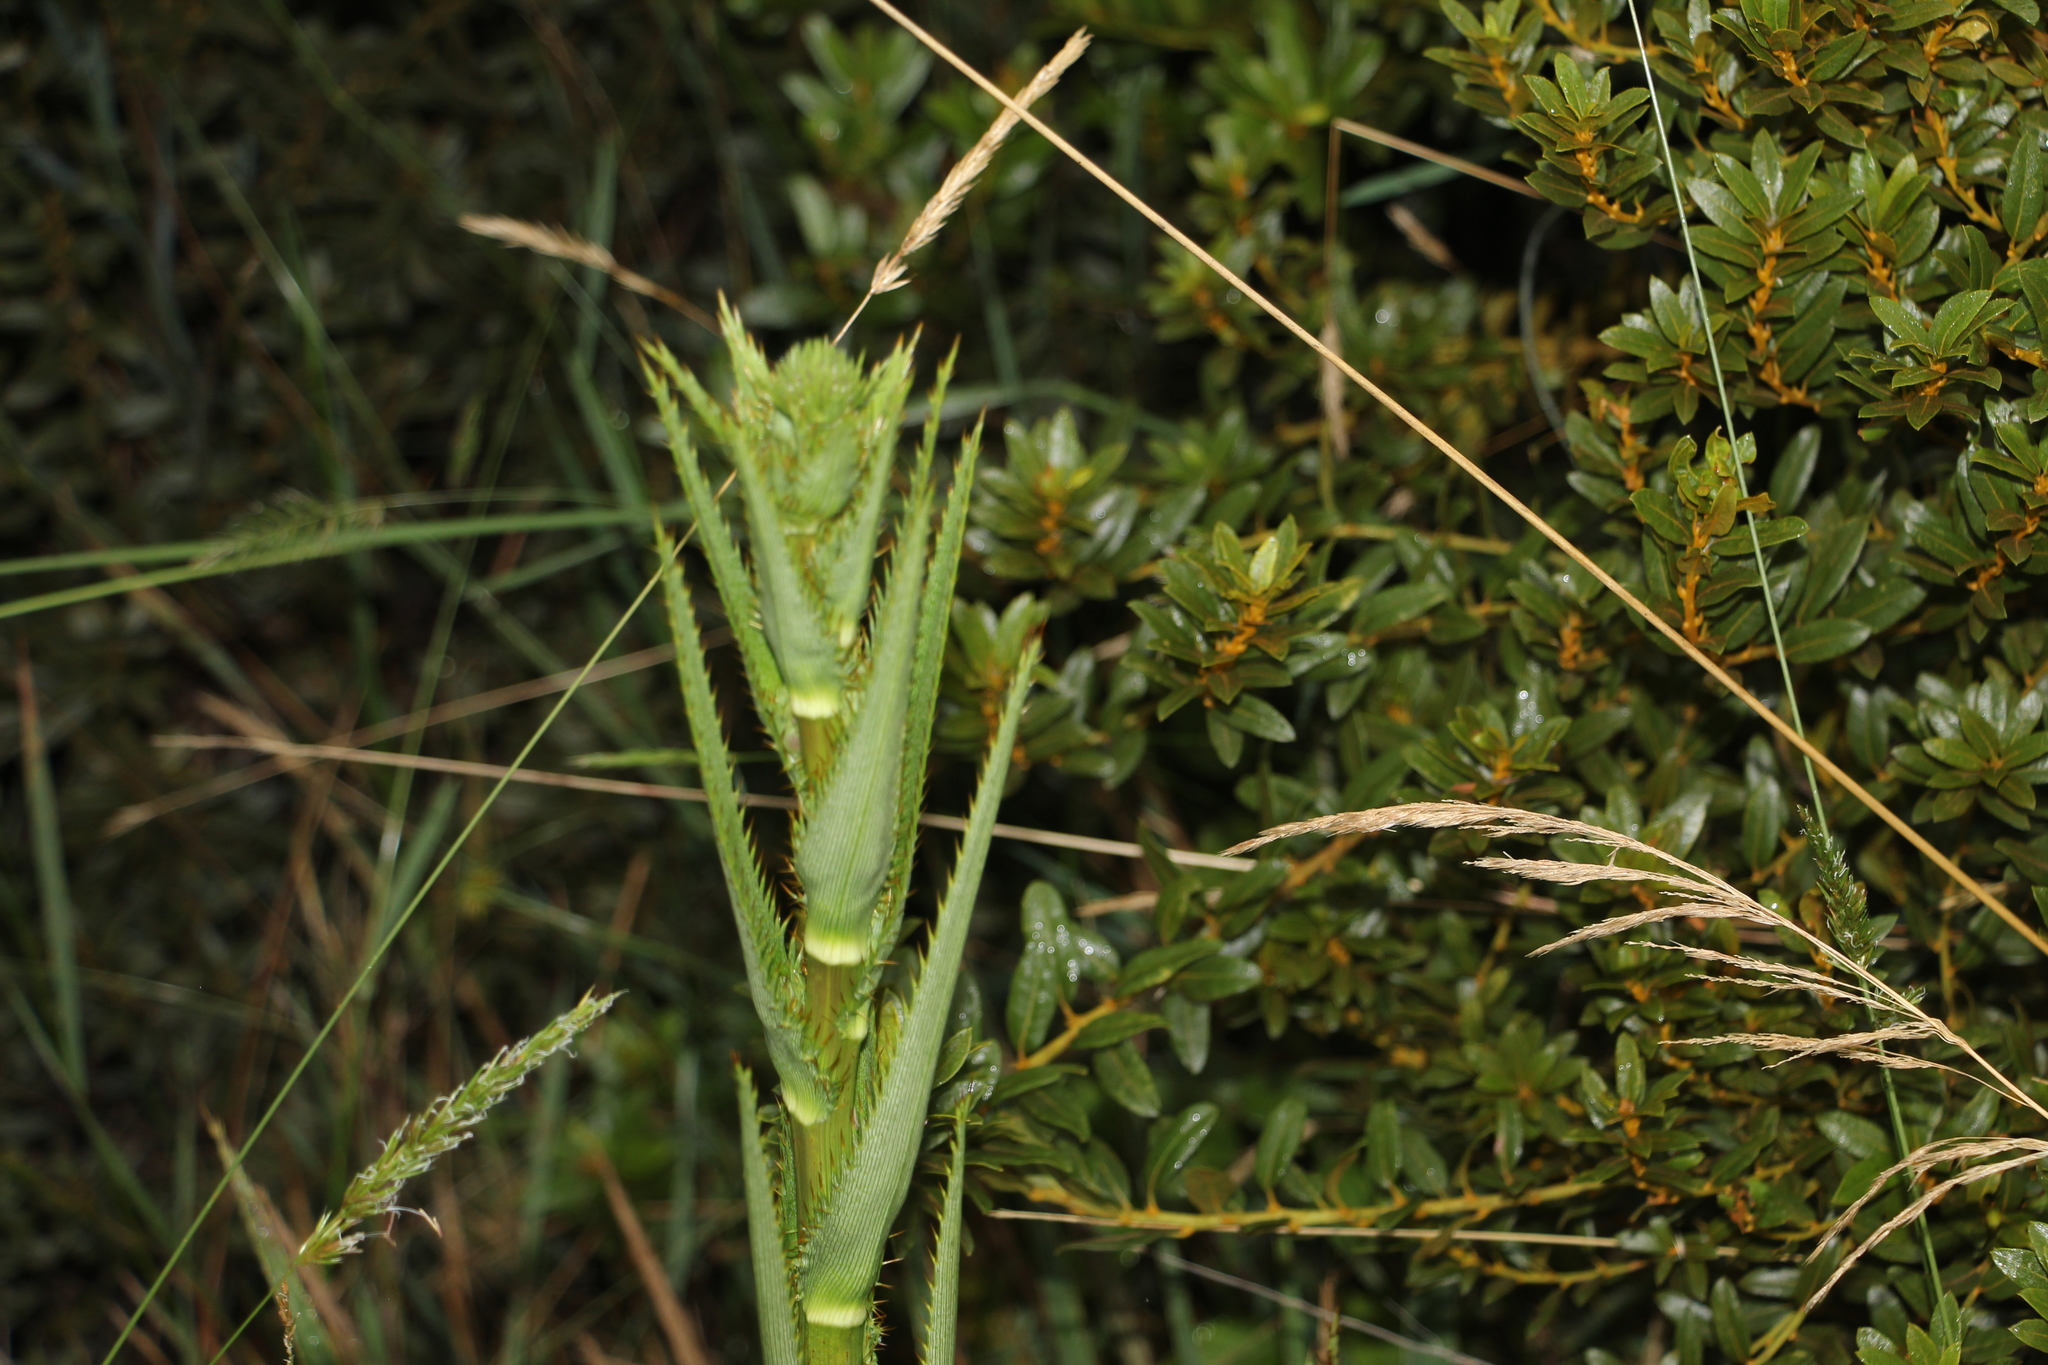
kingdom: Plantae
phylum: Tracheophyta
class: Magnoliopsida
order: Apiales
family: Apiaceae
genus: Eryngium
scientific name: Eryngium humboldtii
